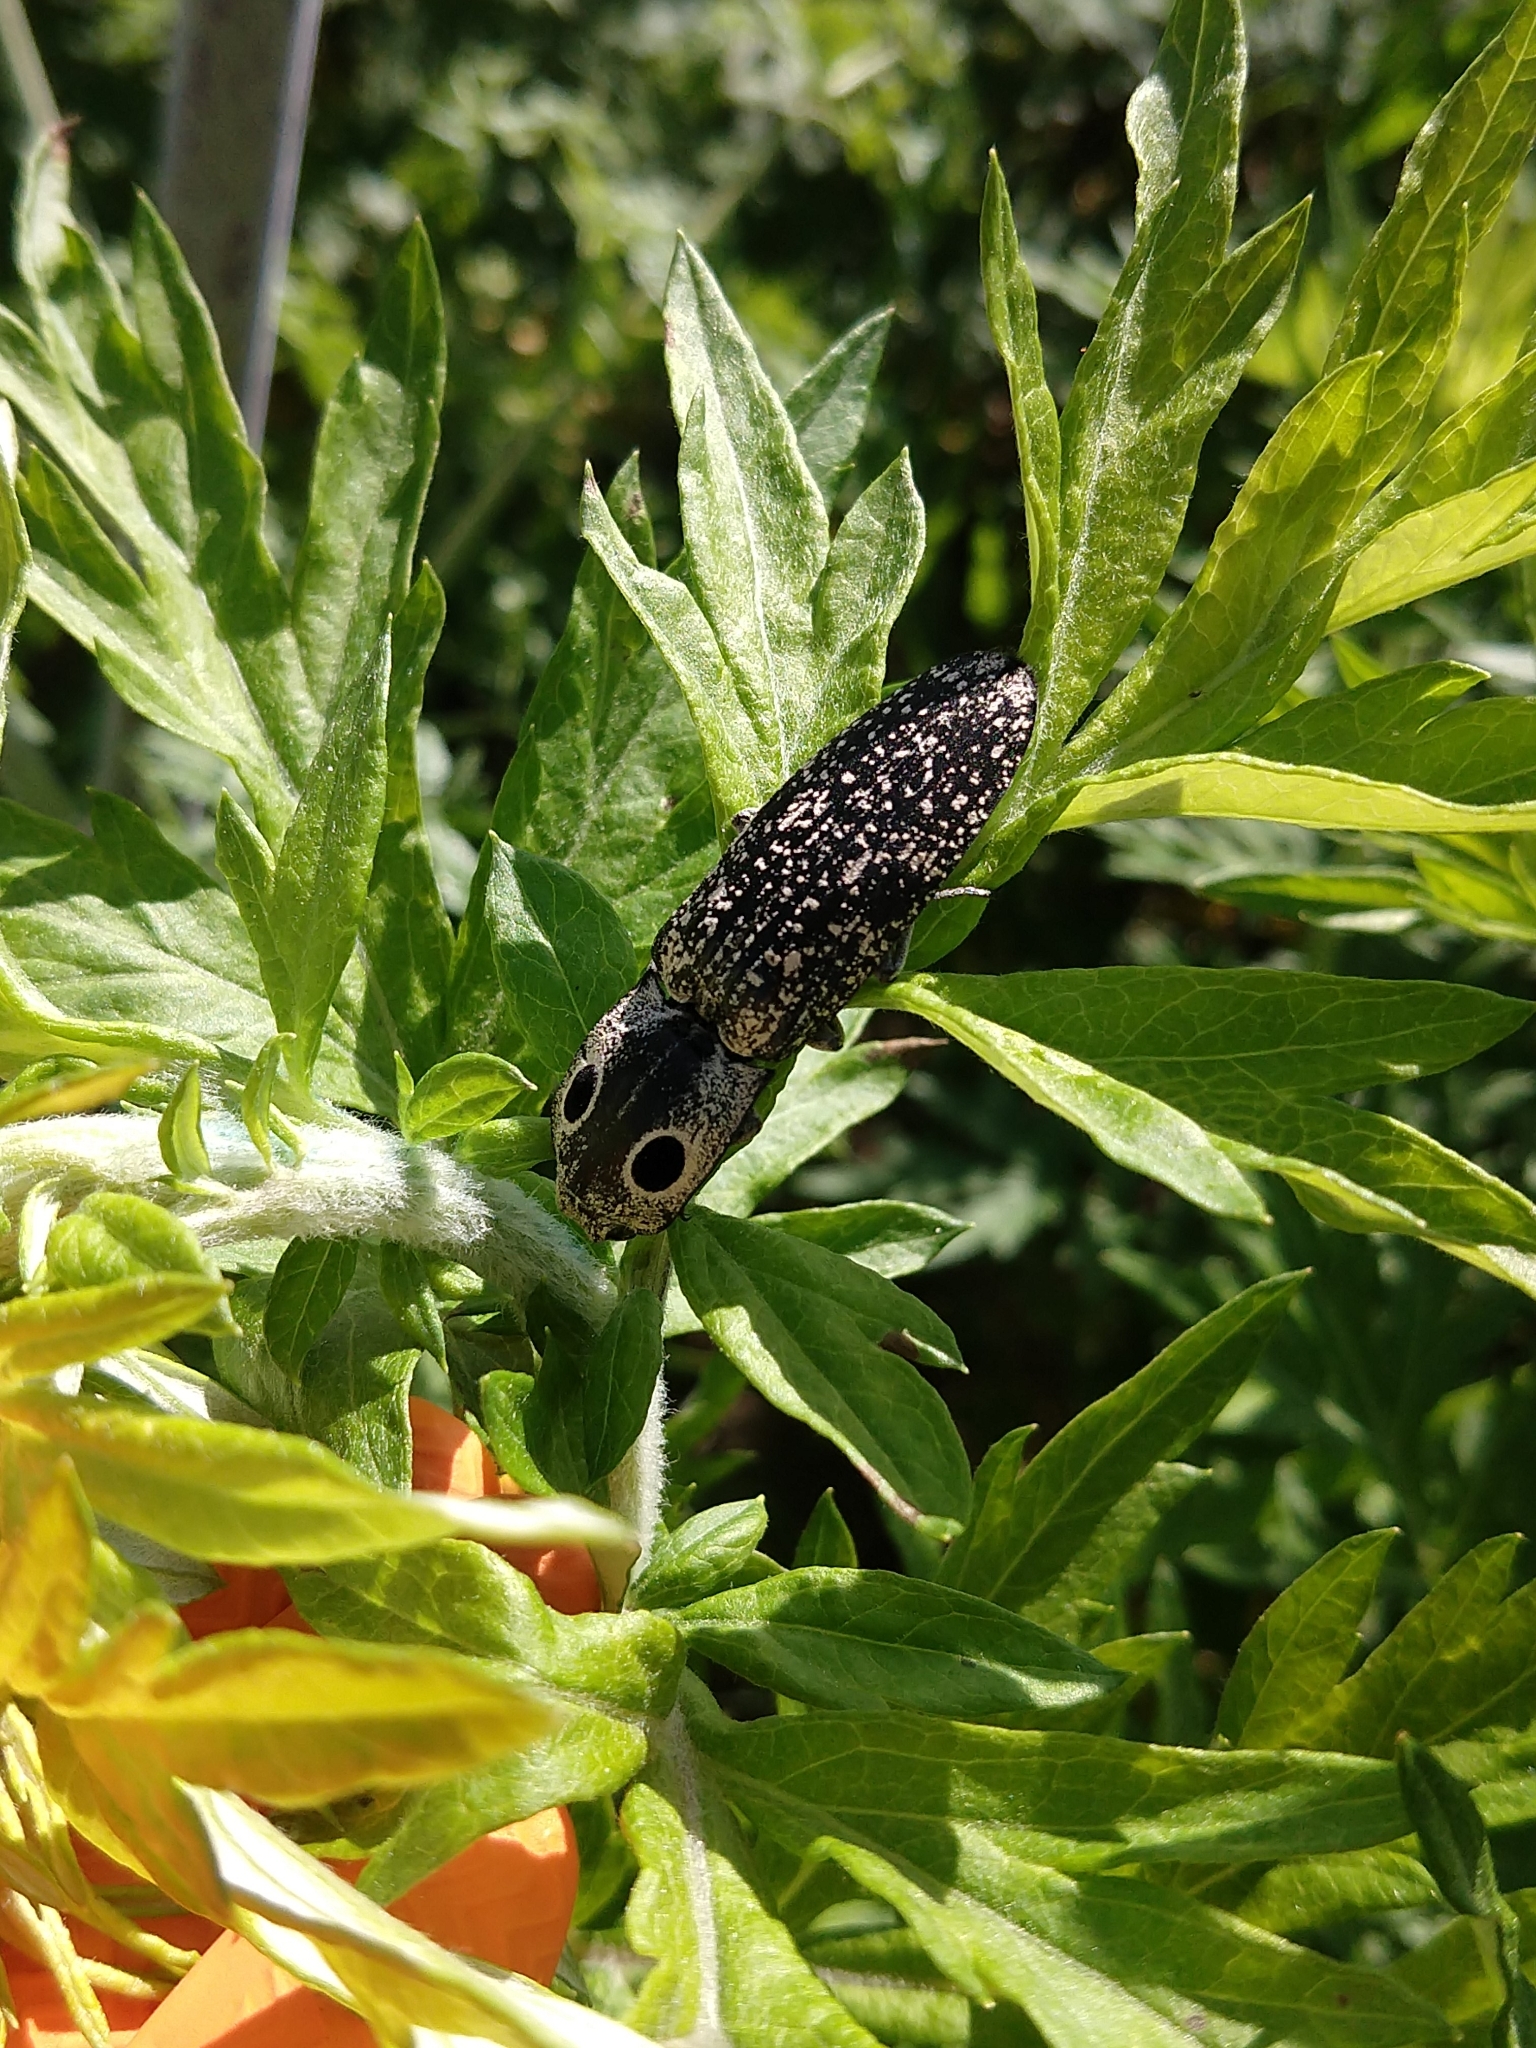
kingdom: Animalia
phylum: Arthropoda
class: Insecta
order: Coleoptera
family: Elateridae
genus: Alaus
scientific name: Alaus oculatus
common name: Eastern eyed click beetle
